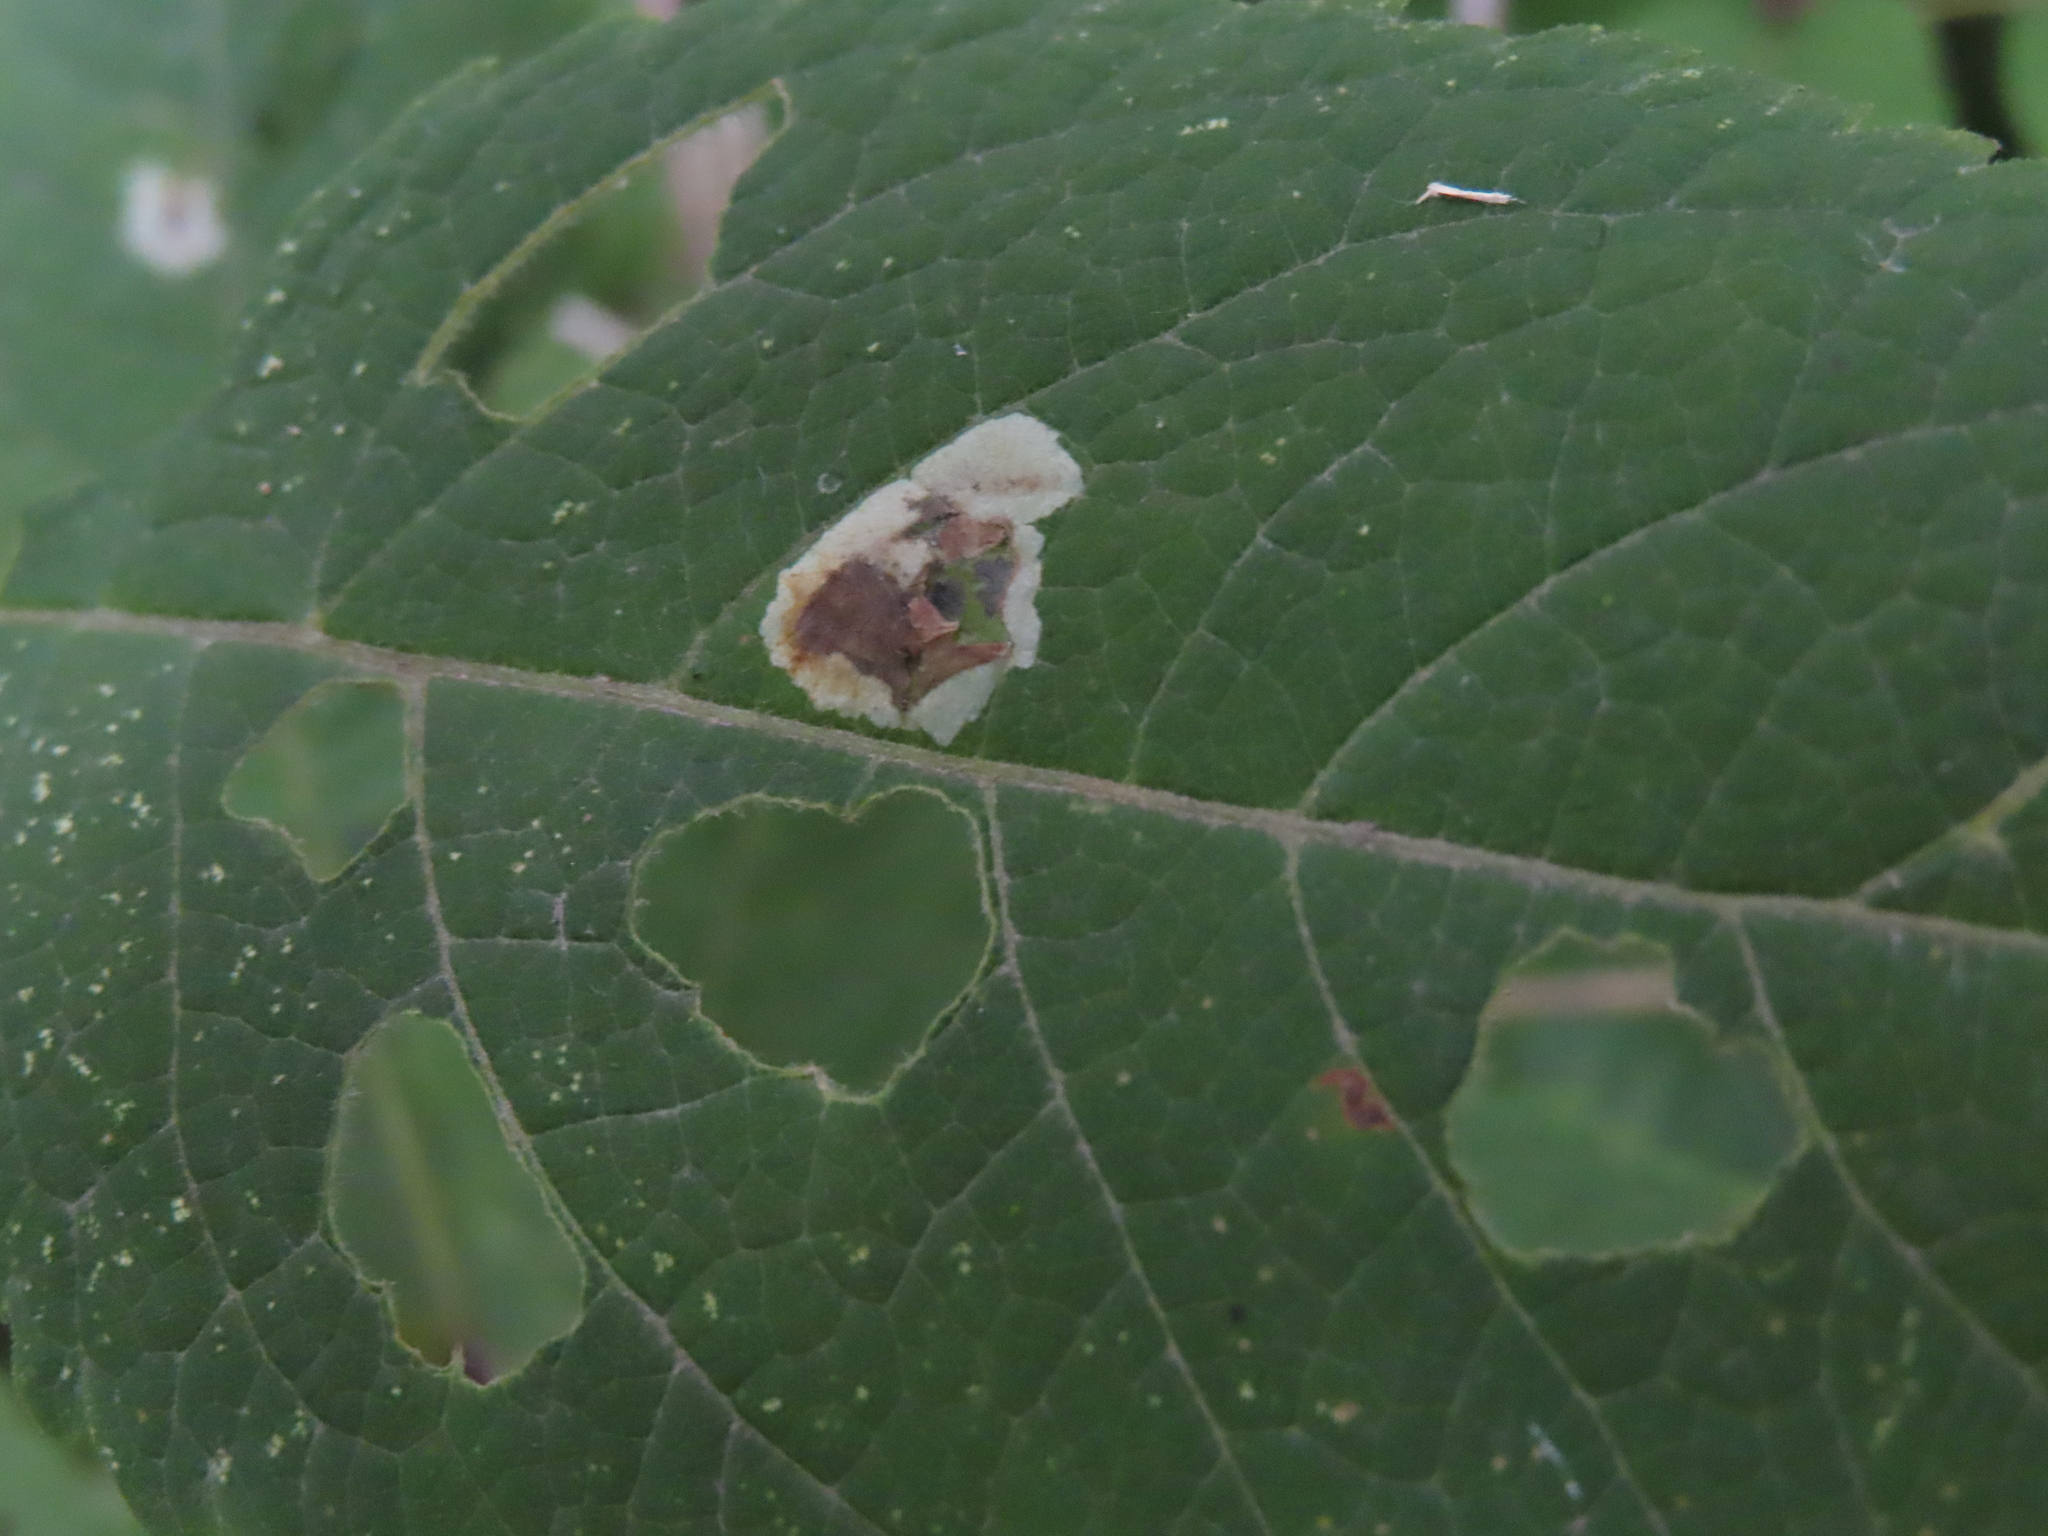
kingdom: Animalia
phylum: Arthropoda
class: Insecta
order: Diptera
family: Agromyzidae
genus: Calycomyza
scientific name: Calycomyza flavinotum
